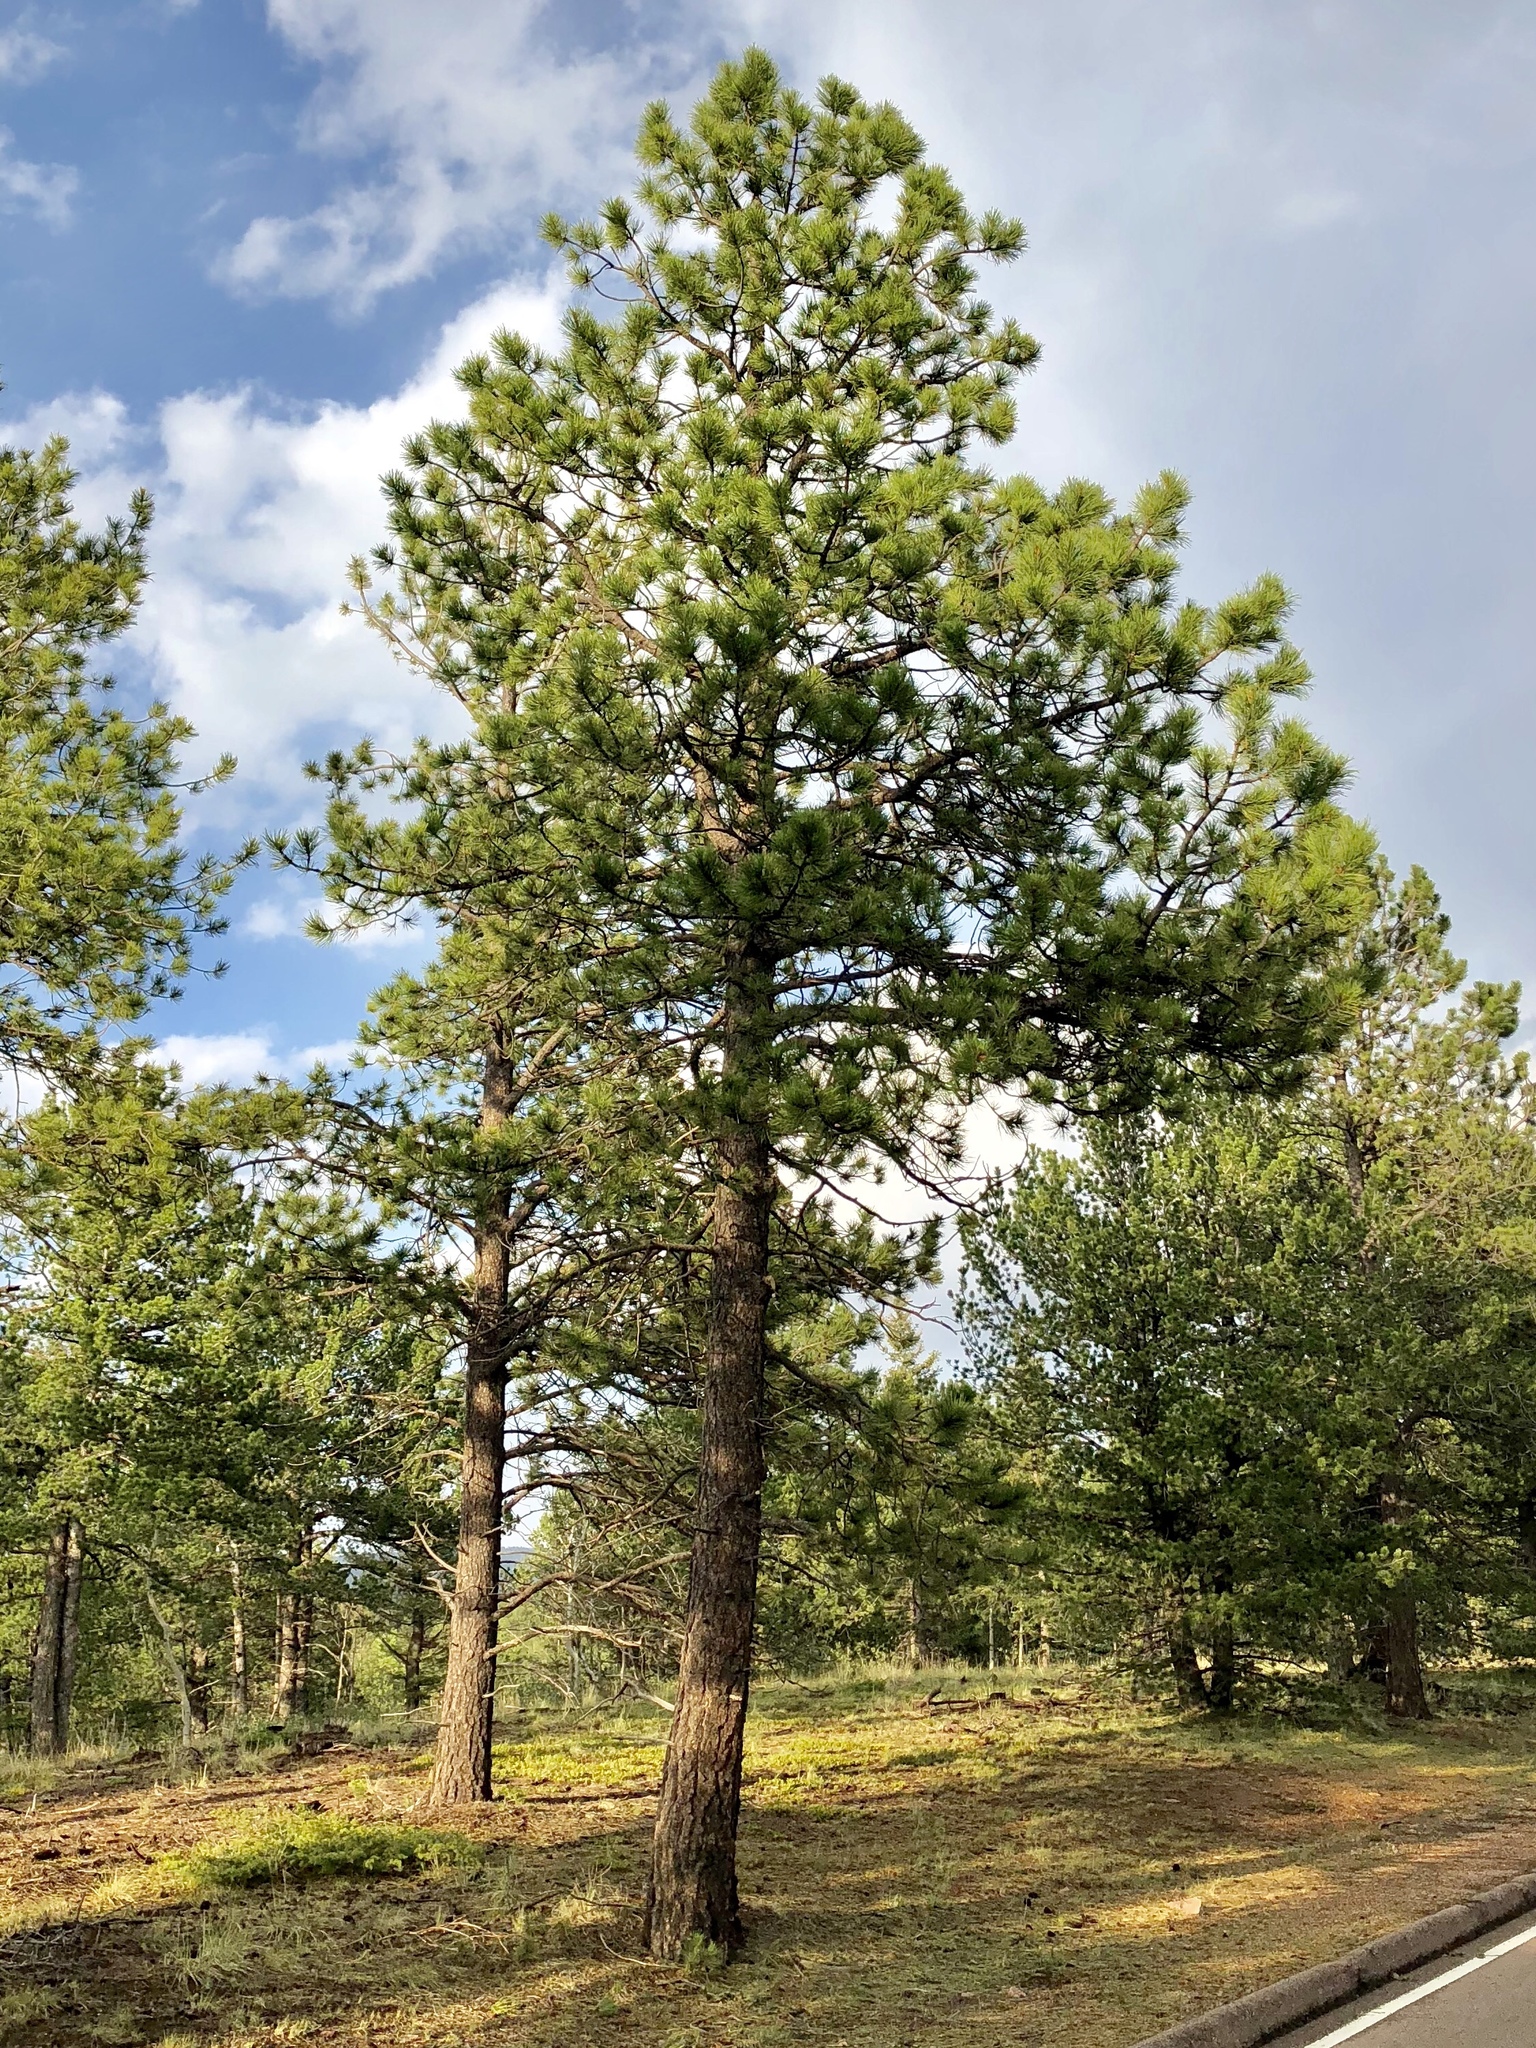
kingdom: Plantae
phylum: Tracheophyta
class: Pinopsida
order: Pinales
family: Pinaceae
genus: Pinus
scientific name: Pinus ponderosa
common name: Western yellow-pine
